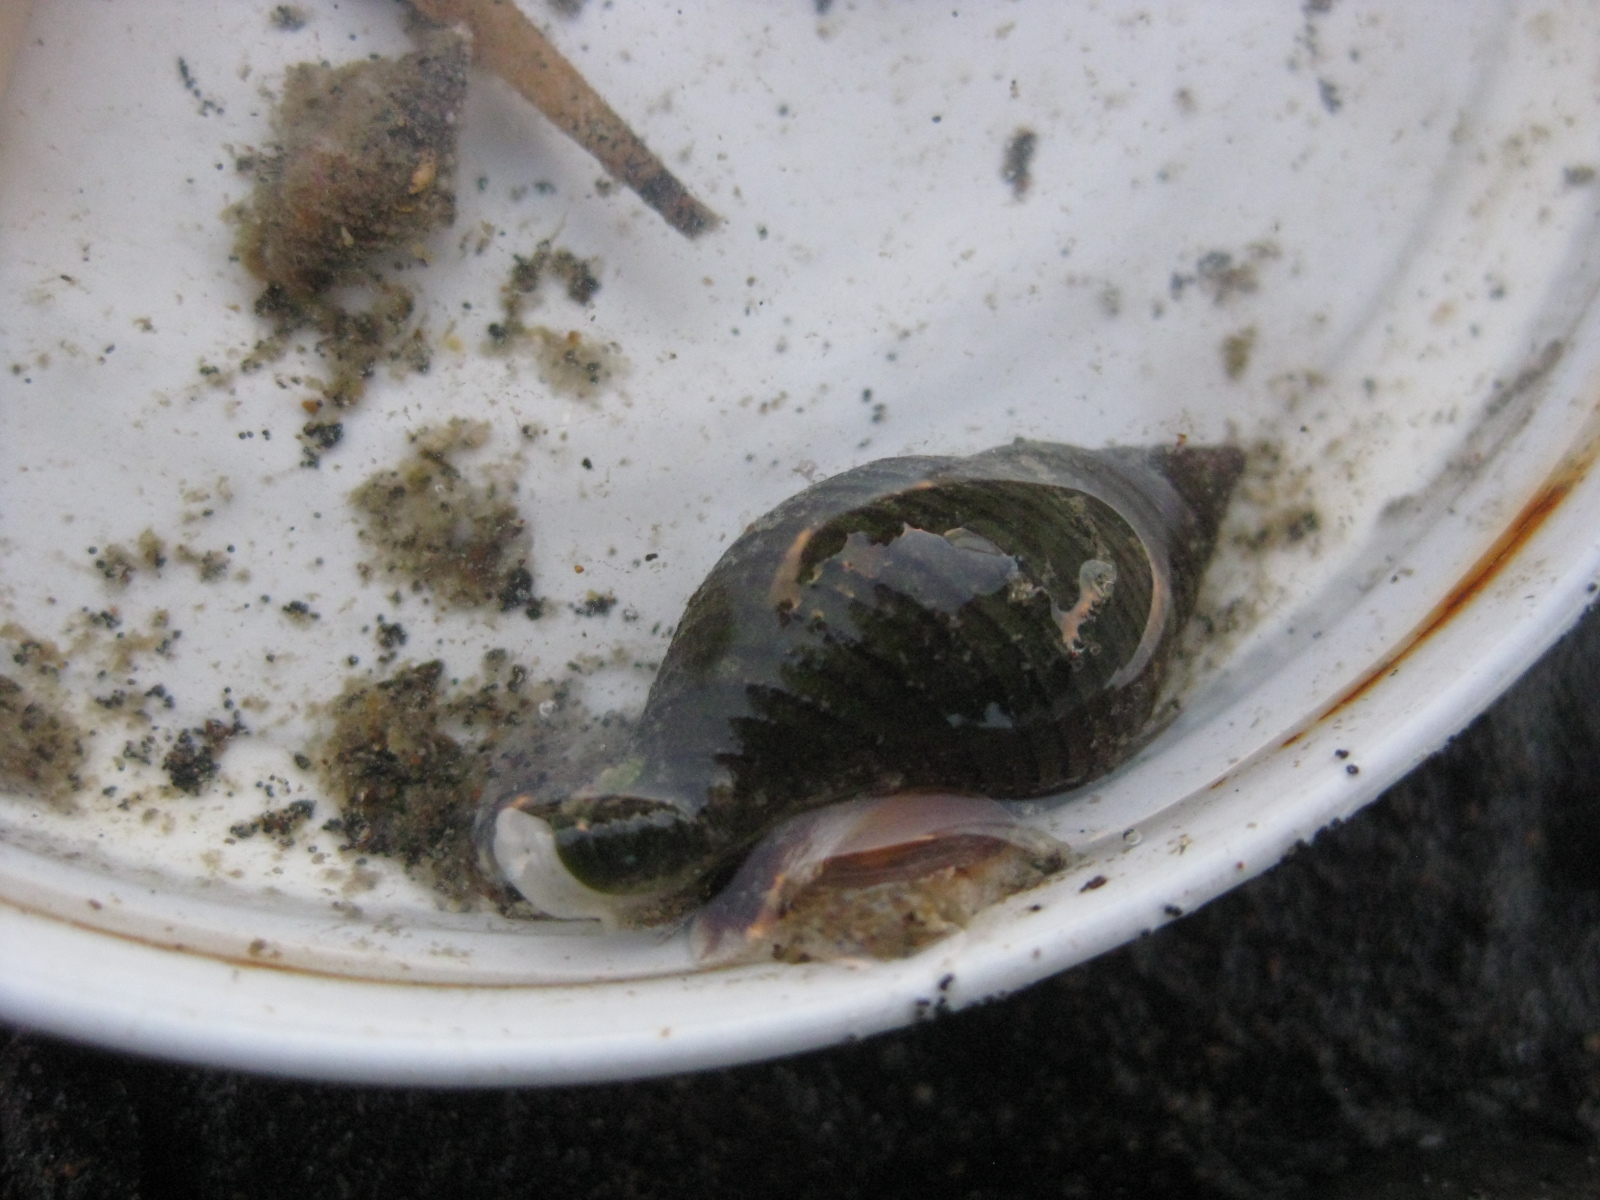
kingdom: Animalia
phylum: Mollusca
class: Gastropoda
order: Neogastropoda
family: Tudiclidae
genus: Buccinulum
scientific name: Buccinulum linea
